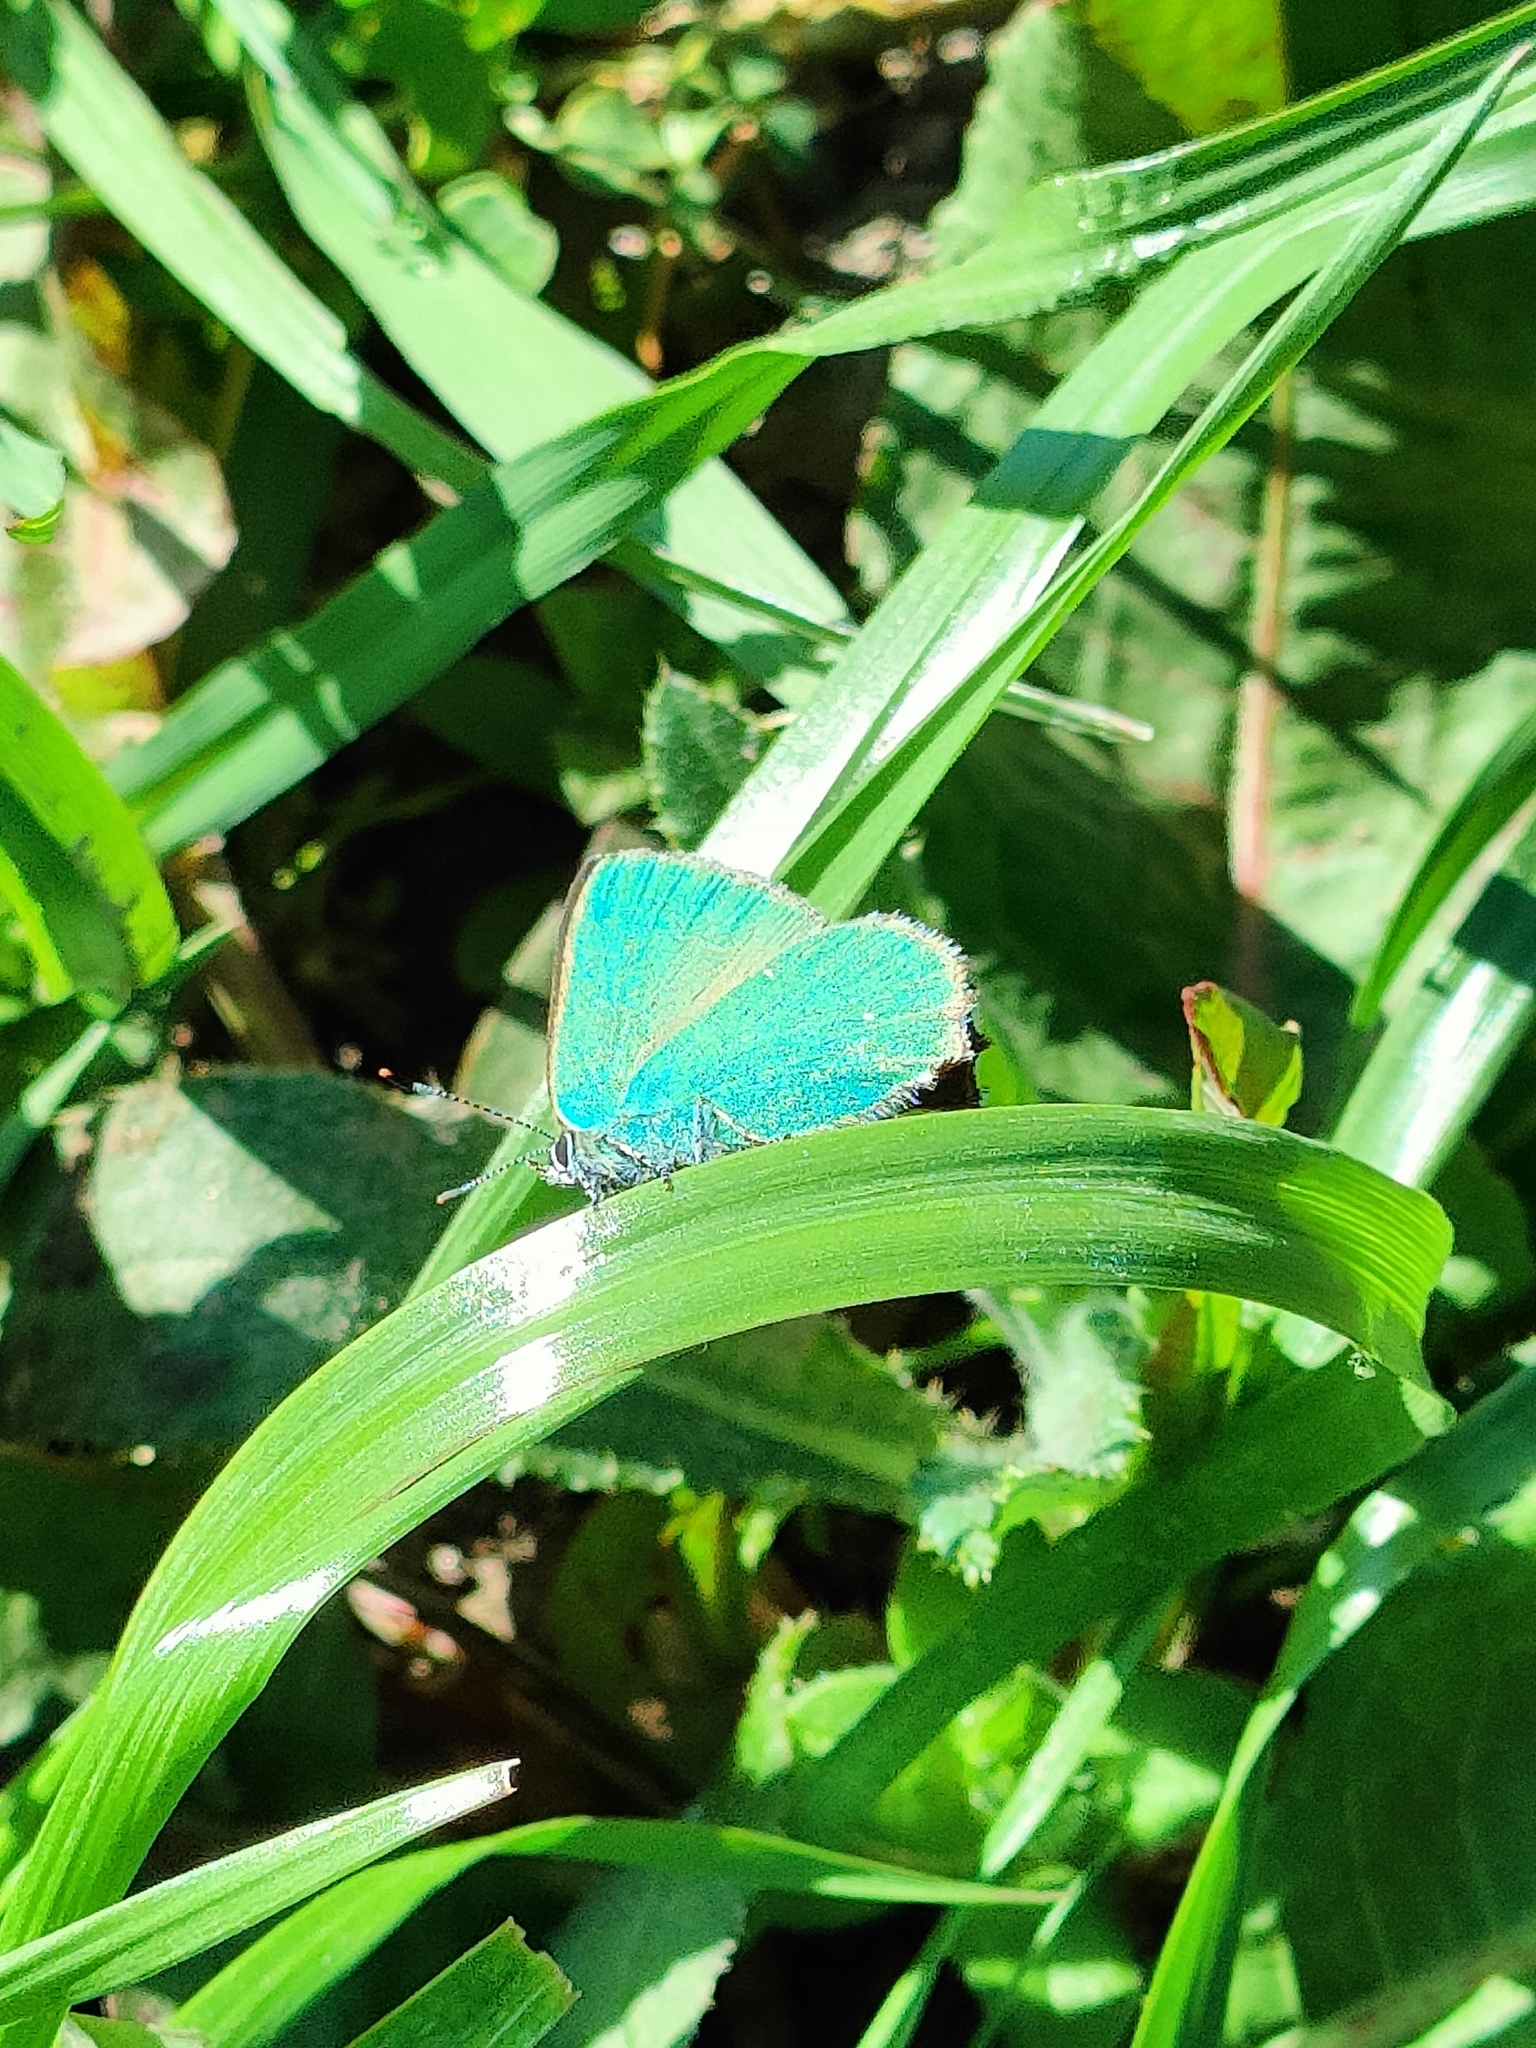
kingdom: Animalia
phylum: Arthropoda
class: Insecta
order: Lepidoptera
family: Lycaenidae
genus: Callophrys
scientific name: Callophrys rubi
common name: Green hairstreak
